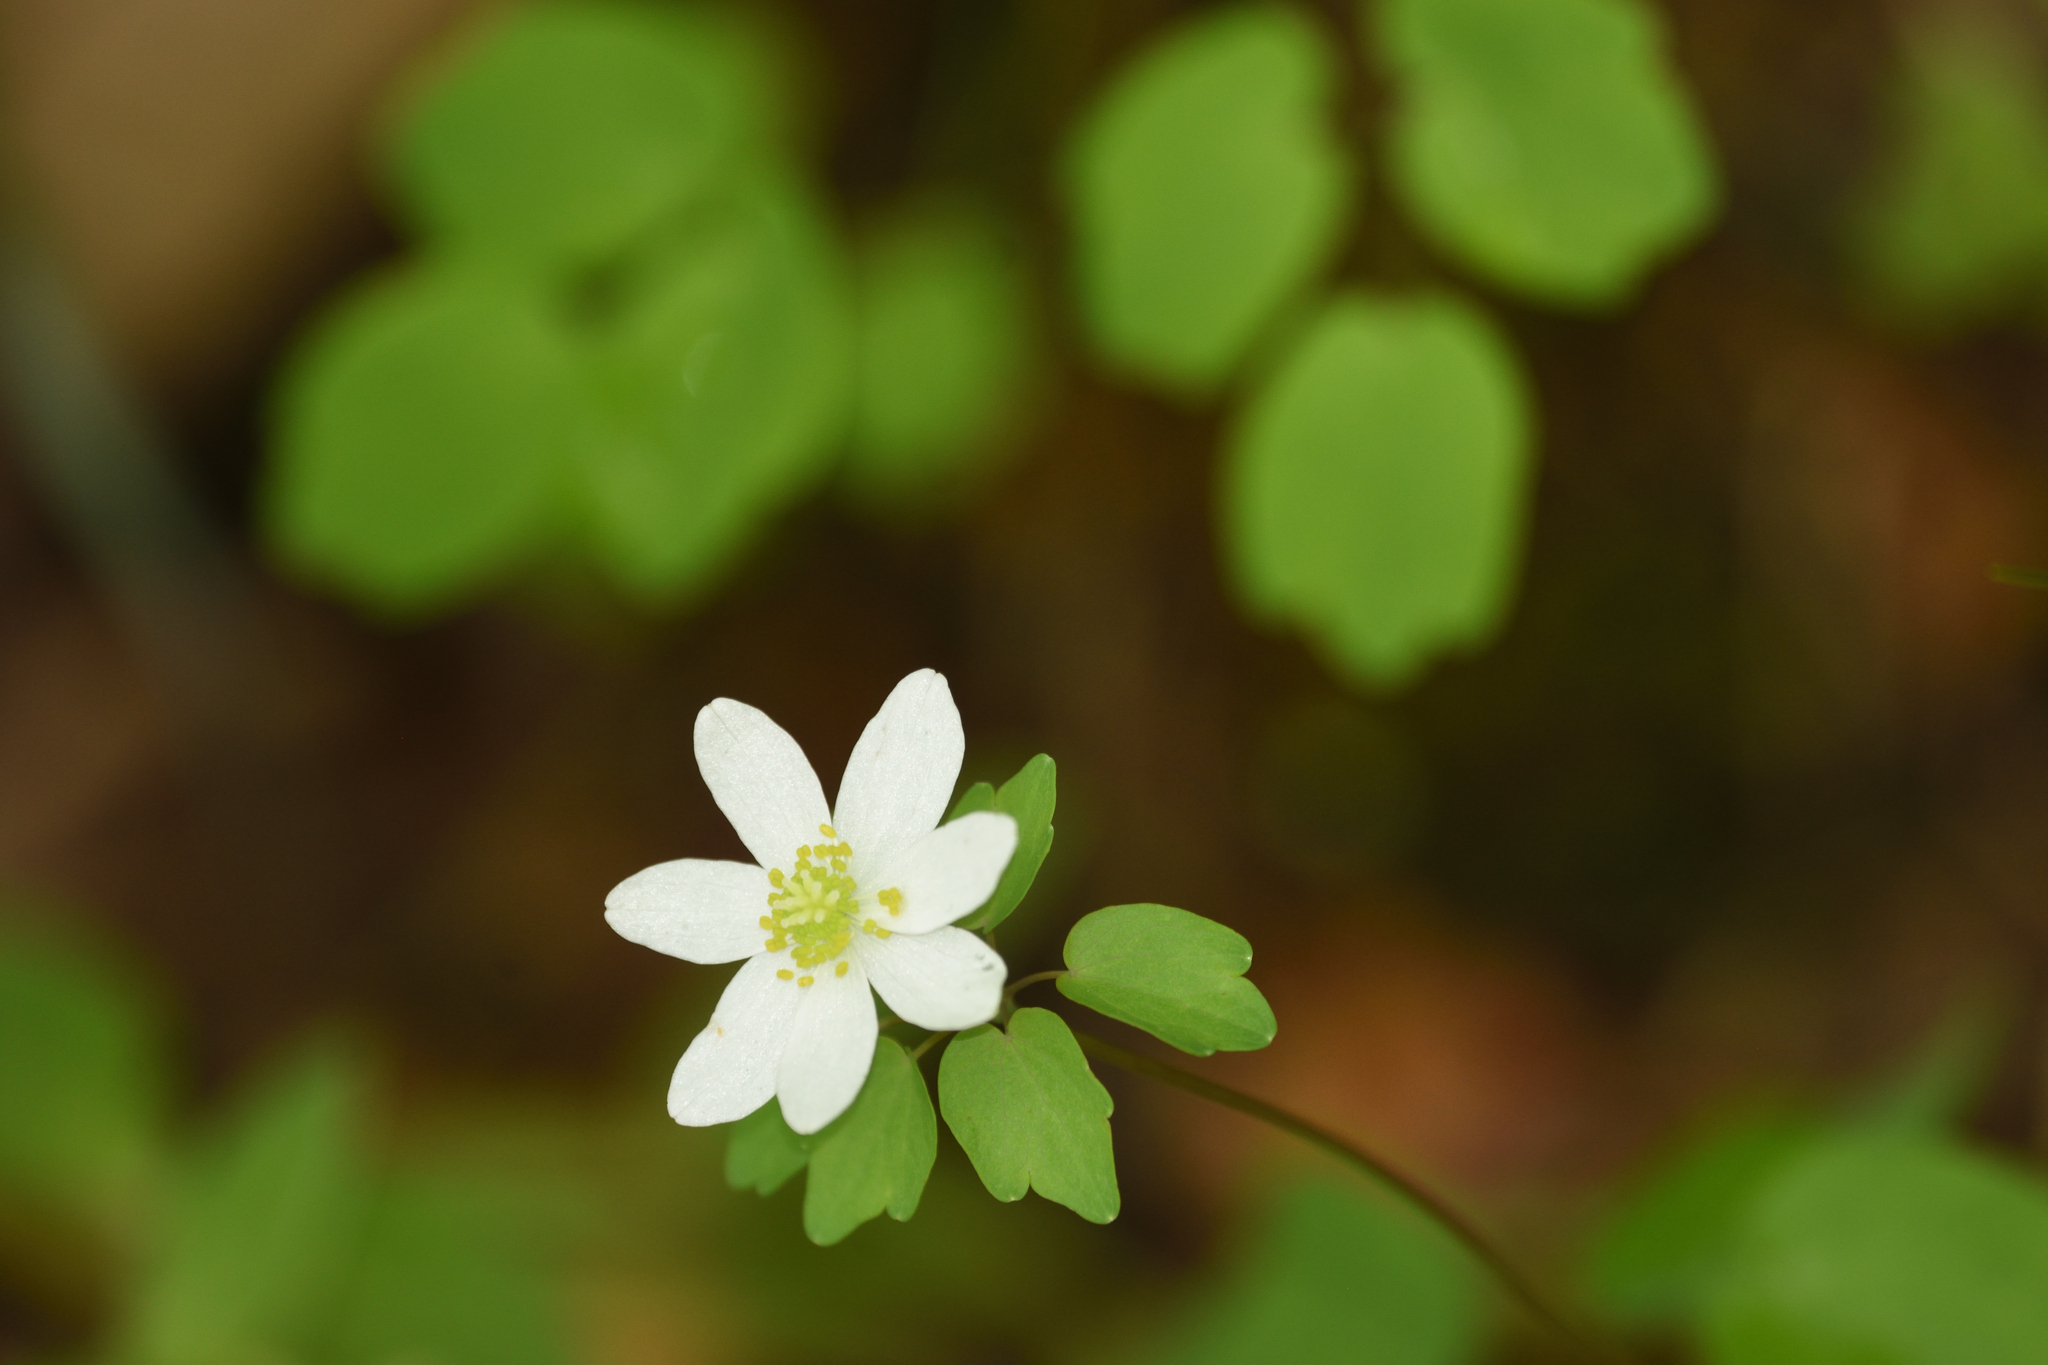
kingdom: Plantae
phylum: Tracheophyta
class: Magnoliopsida
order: Ranunculales
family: Ranunculaceae
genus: Thalictrum
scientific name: Thalictrum thalictroides
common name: Rue-anemone
